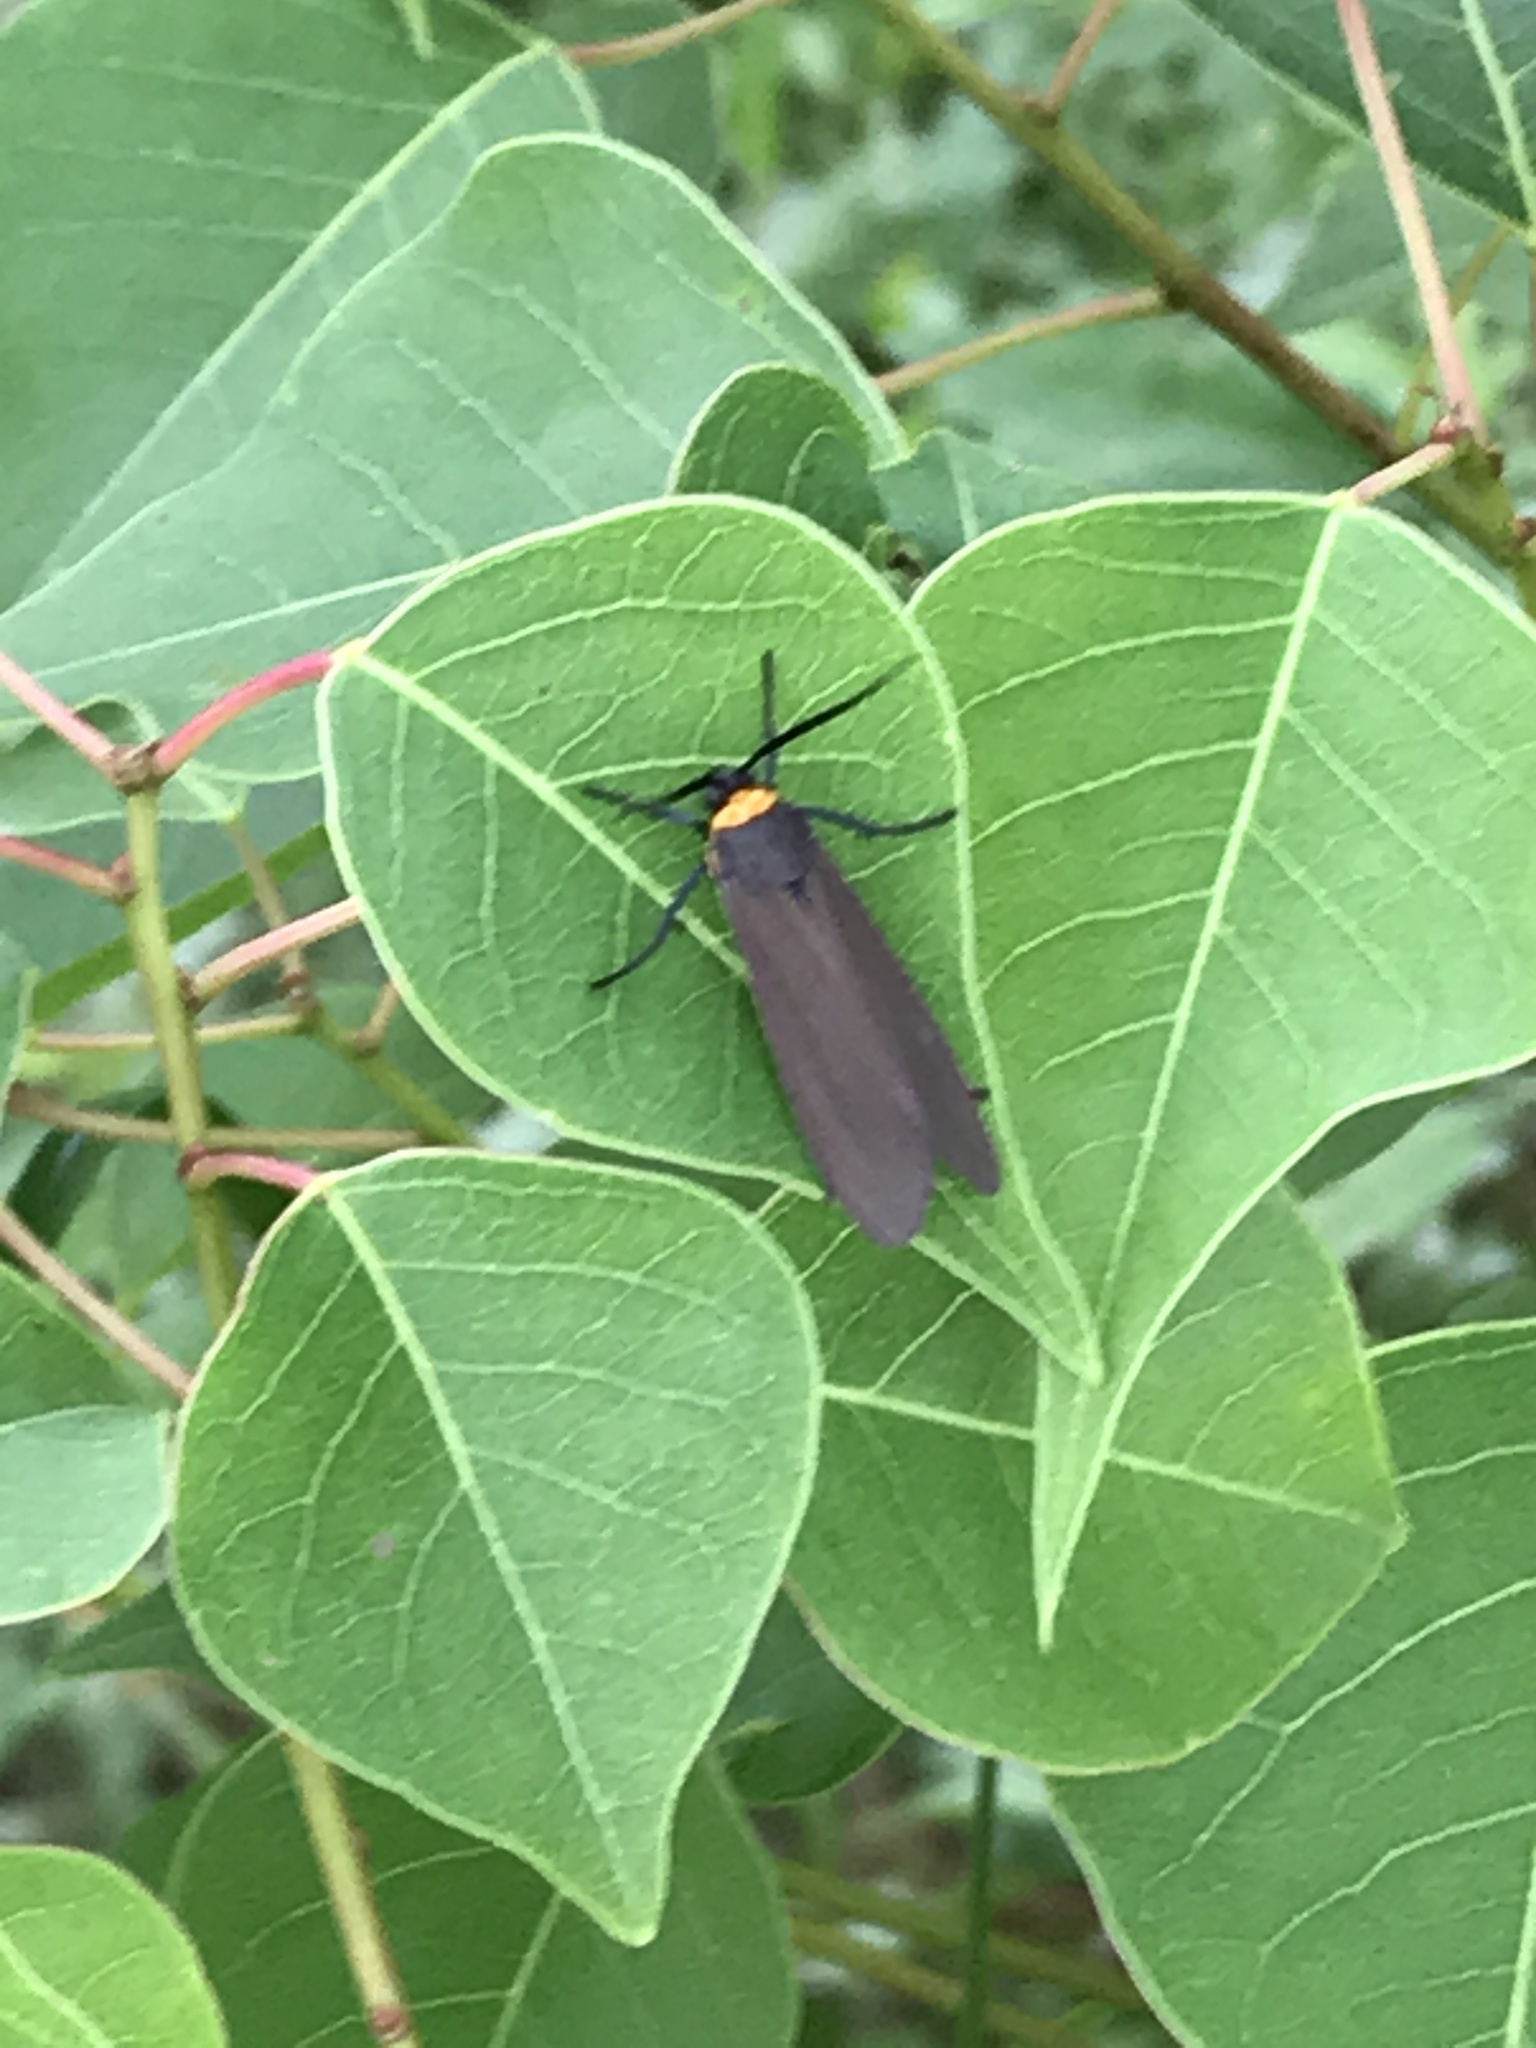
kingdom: Animalia
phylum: Arthropoda
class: Insecta
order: Lepidoptera
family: Erebidae
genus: Cisseps
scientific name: Cisseps fulvicollis
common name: Yellow-collared scape moth
